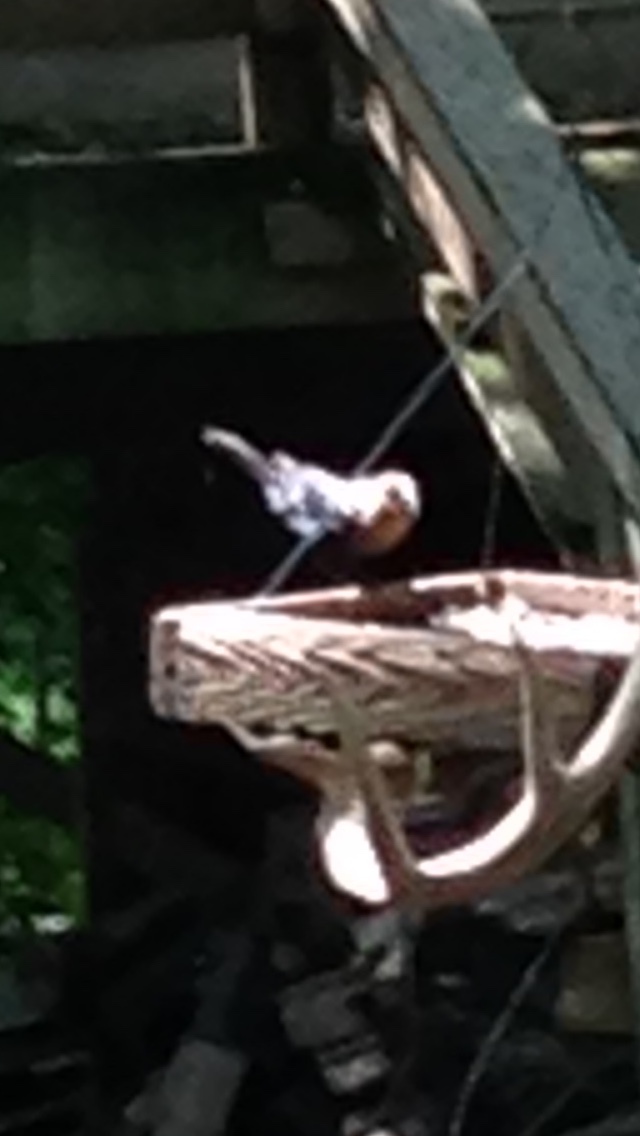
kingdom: Animalia
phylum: Chordata
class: Aves
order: Passeriformes
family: Icteridae
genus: Molothrus
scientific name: Molothrus ater
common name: Brown-headed cowbird
